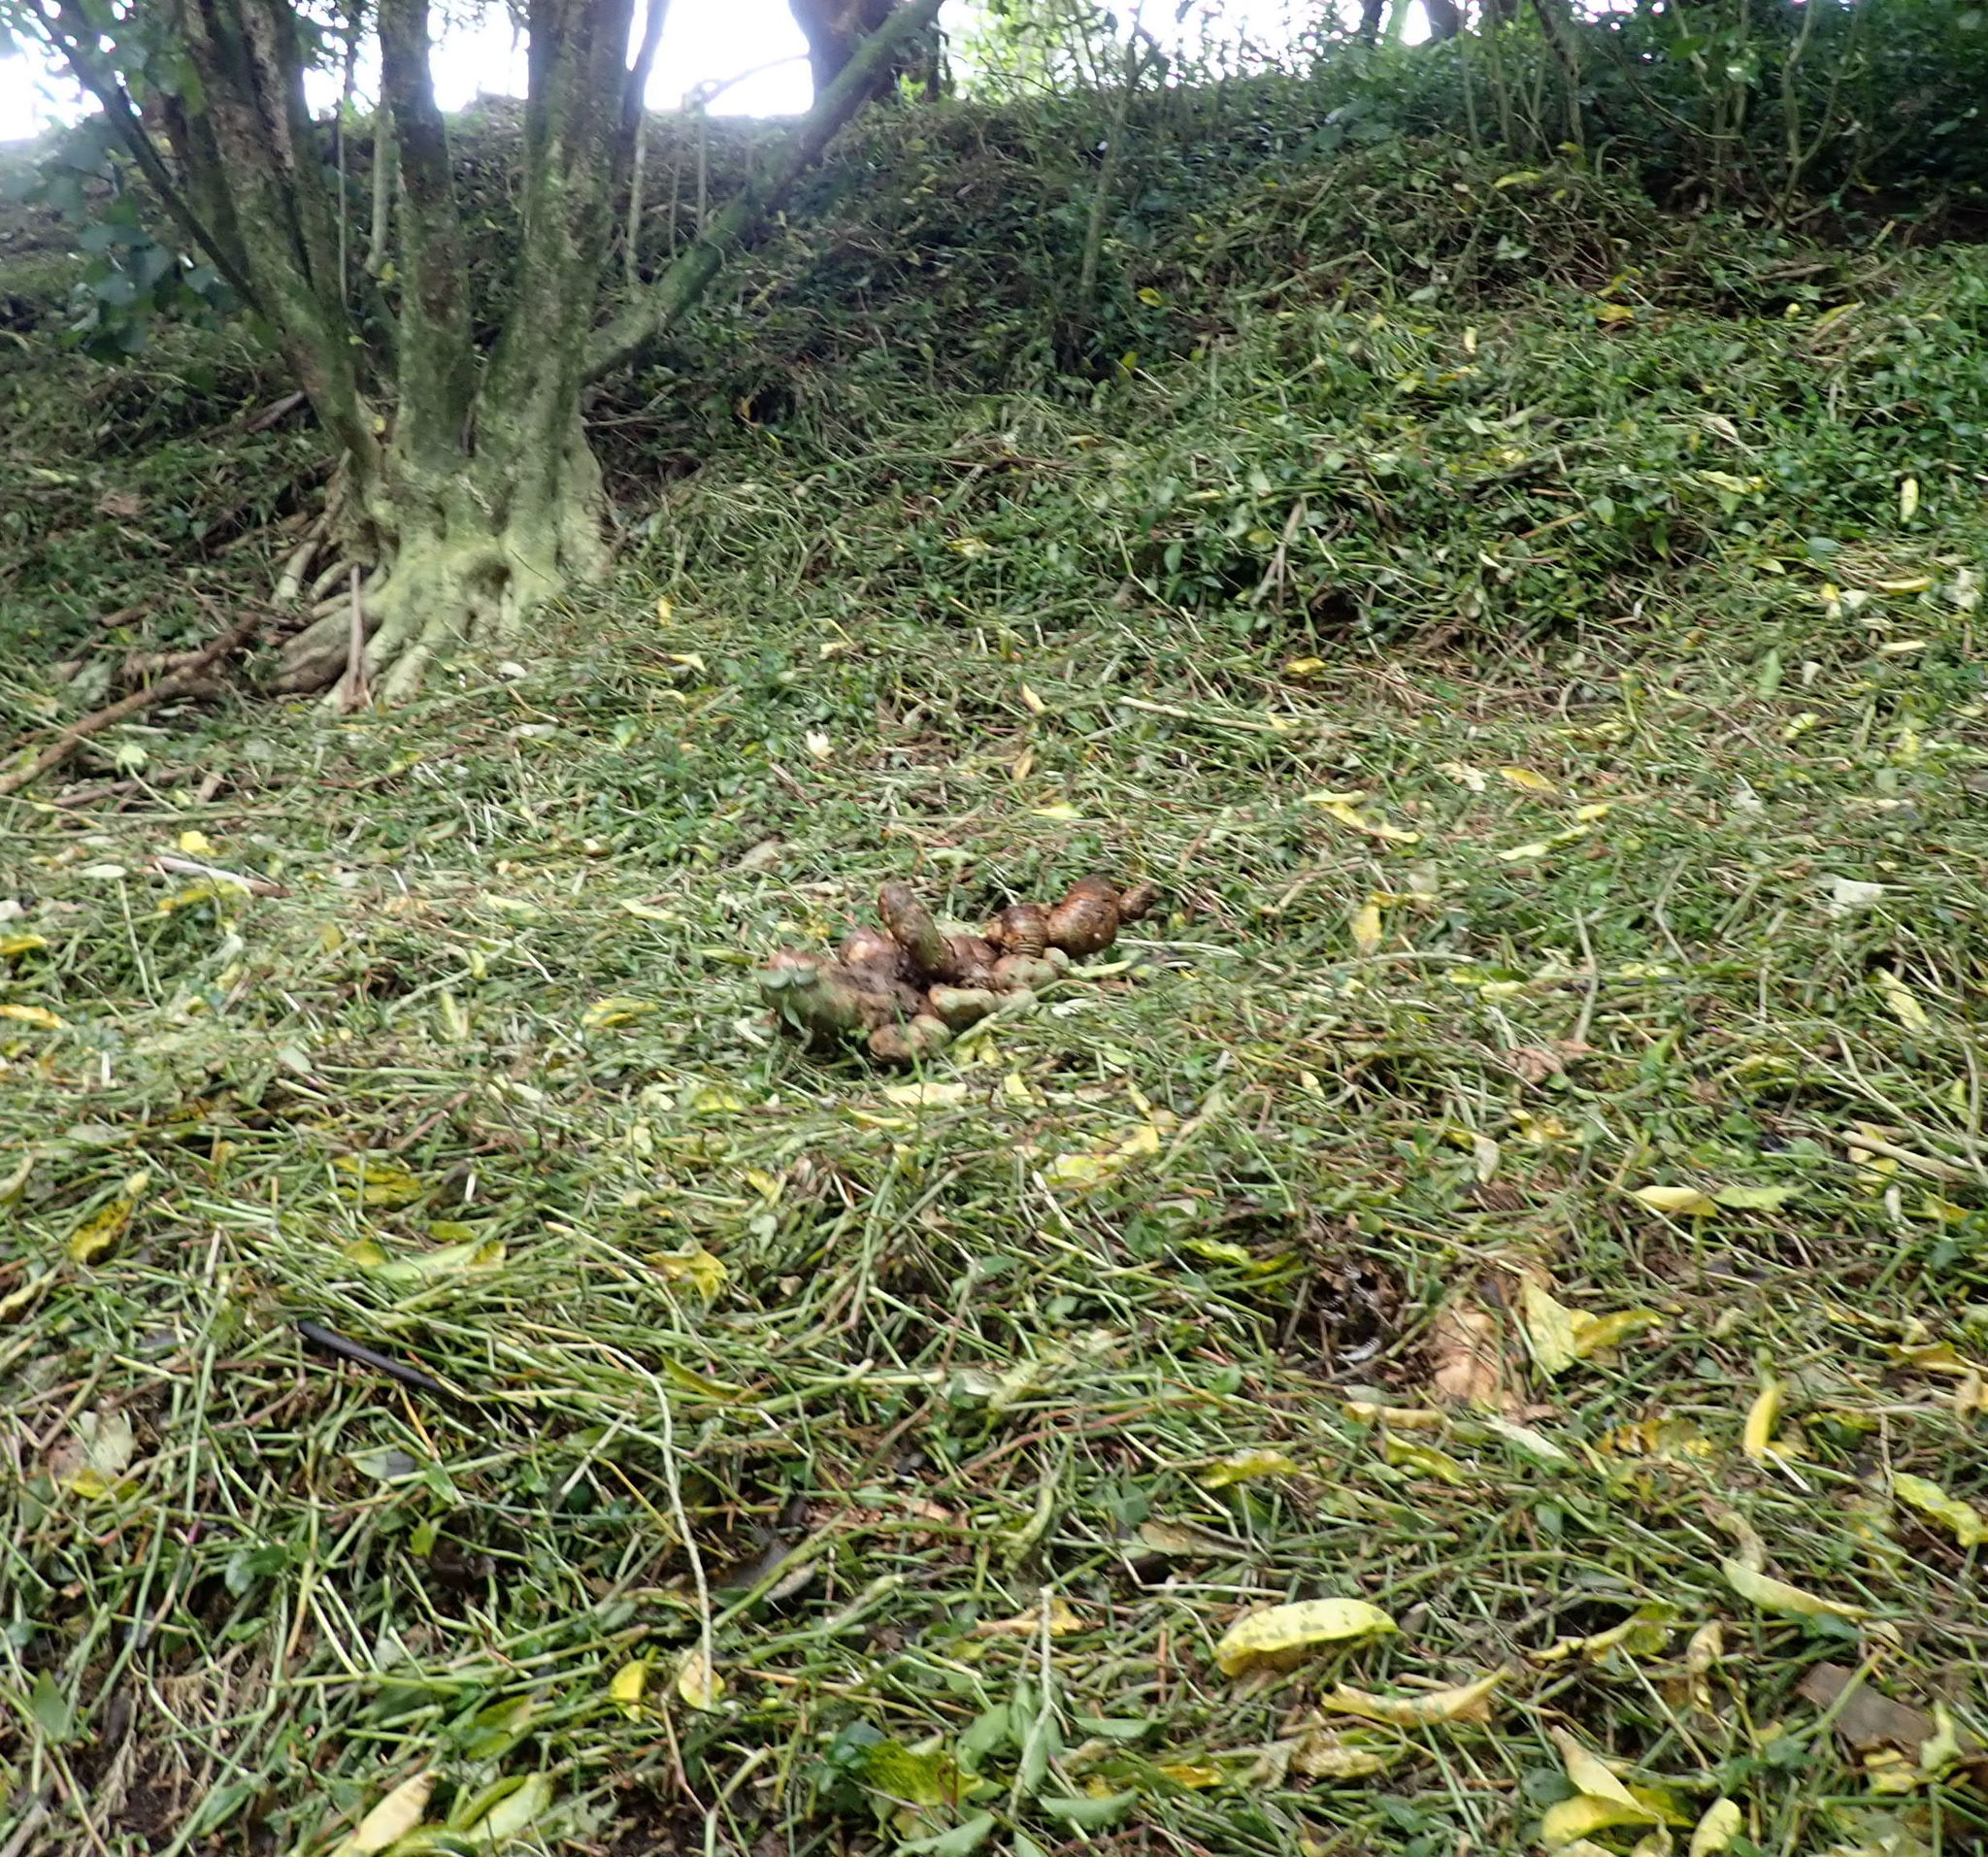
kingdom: Plantae
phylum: Tracheophyta
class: Liliopsida
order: Commelinales
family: Commelinaceae
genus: Tradescantia
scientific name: Tradescantia fluminensis
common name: Wandering-jew
